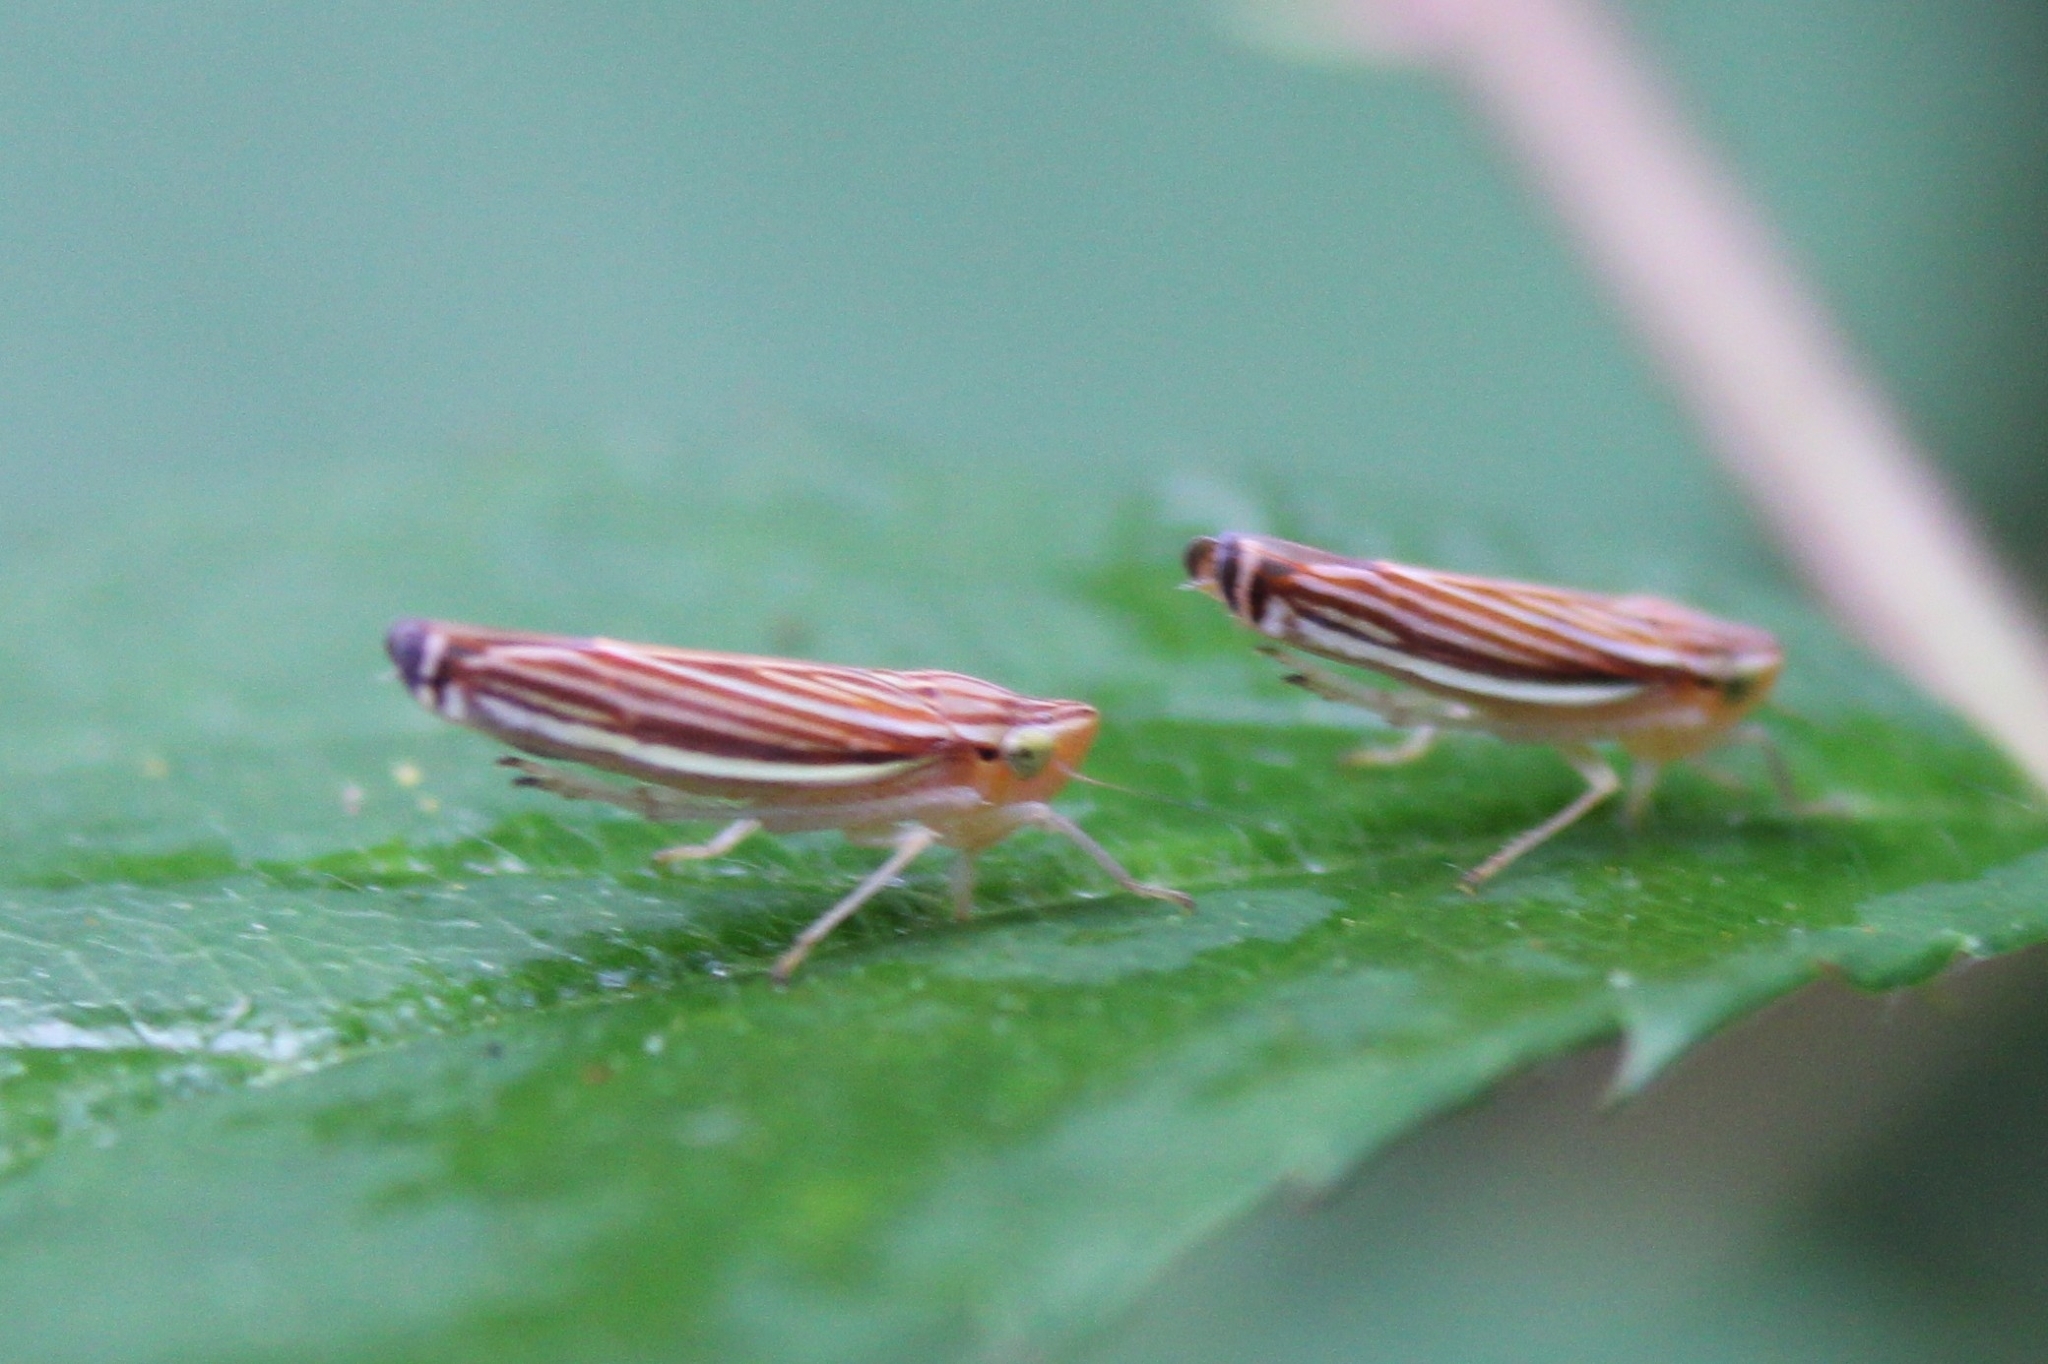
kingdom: Animalia
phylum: Arthropoda
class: Insecta
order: Hemiptera
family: Cicadellidae
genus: Sibovia
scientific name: Sibovia occatoria
